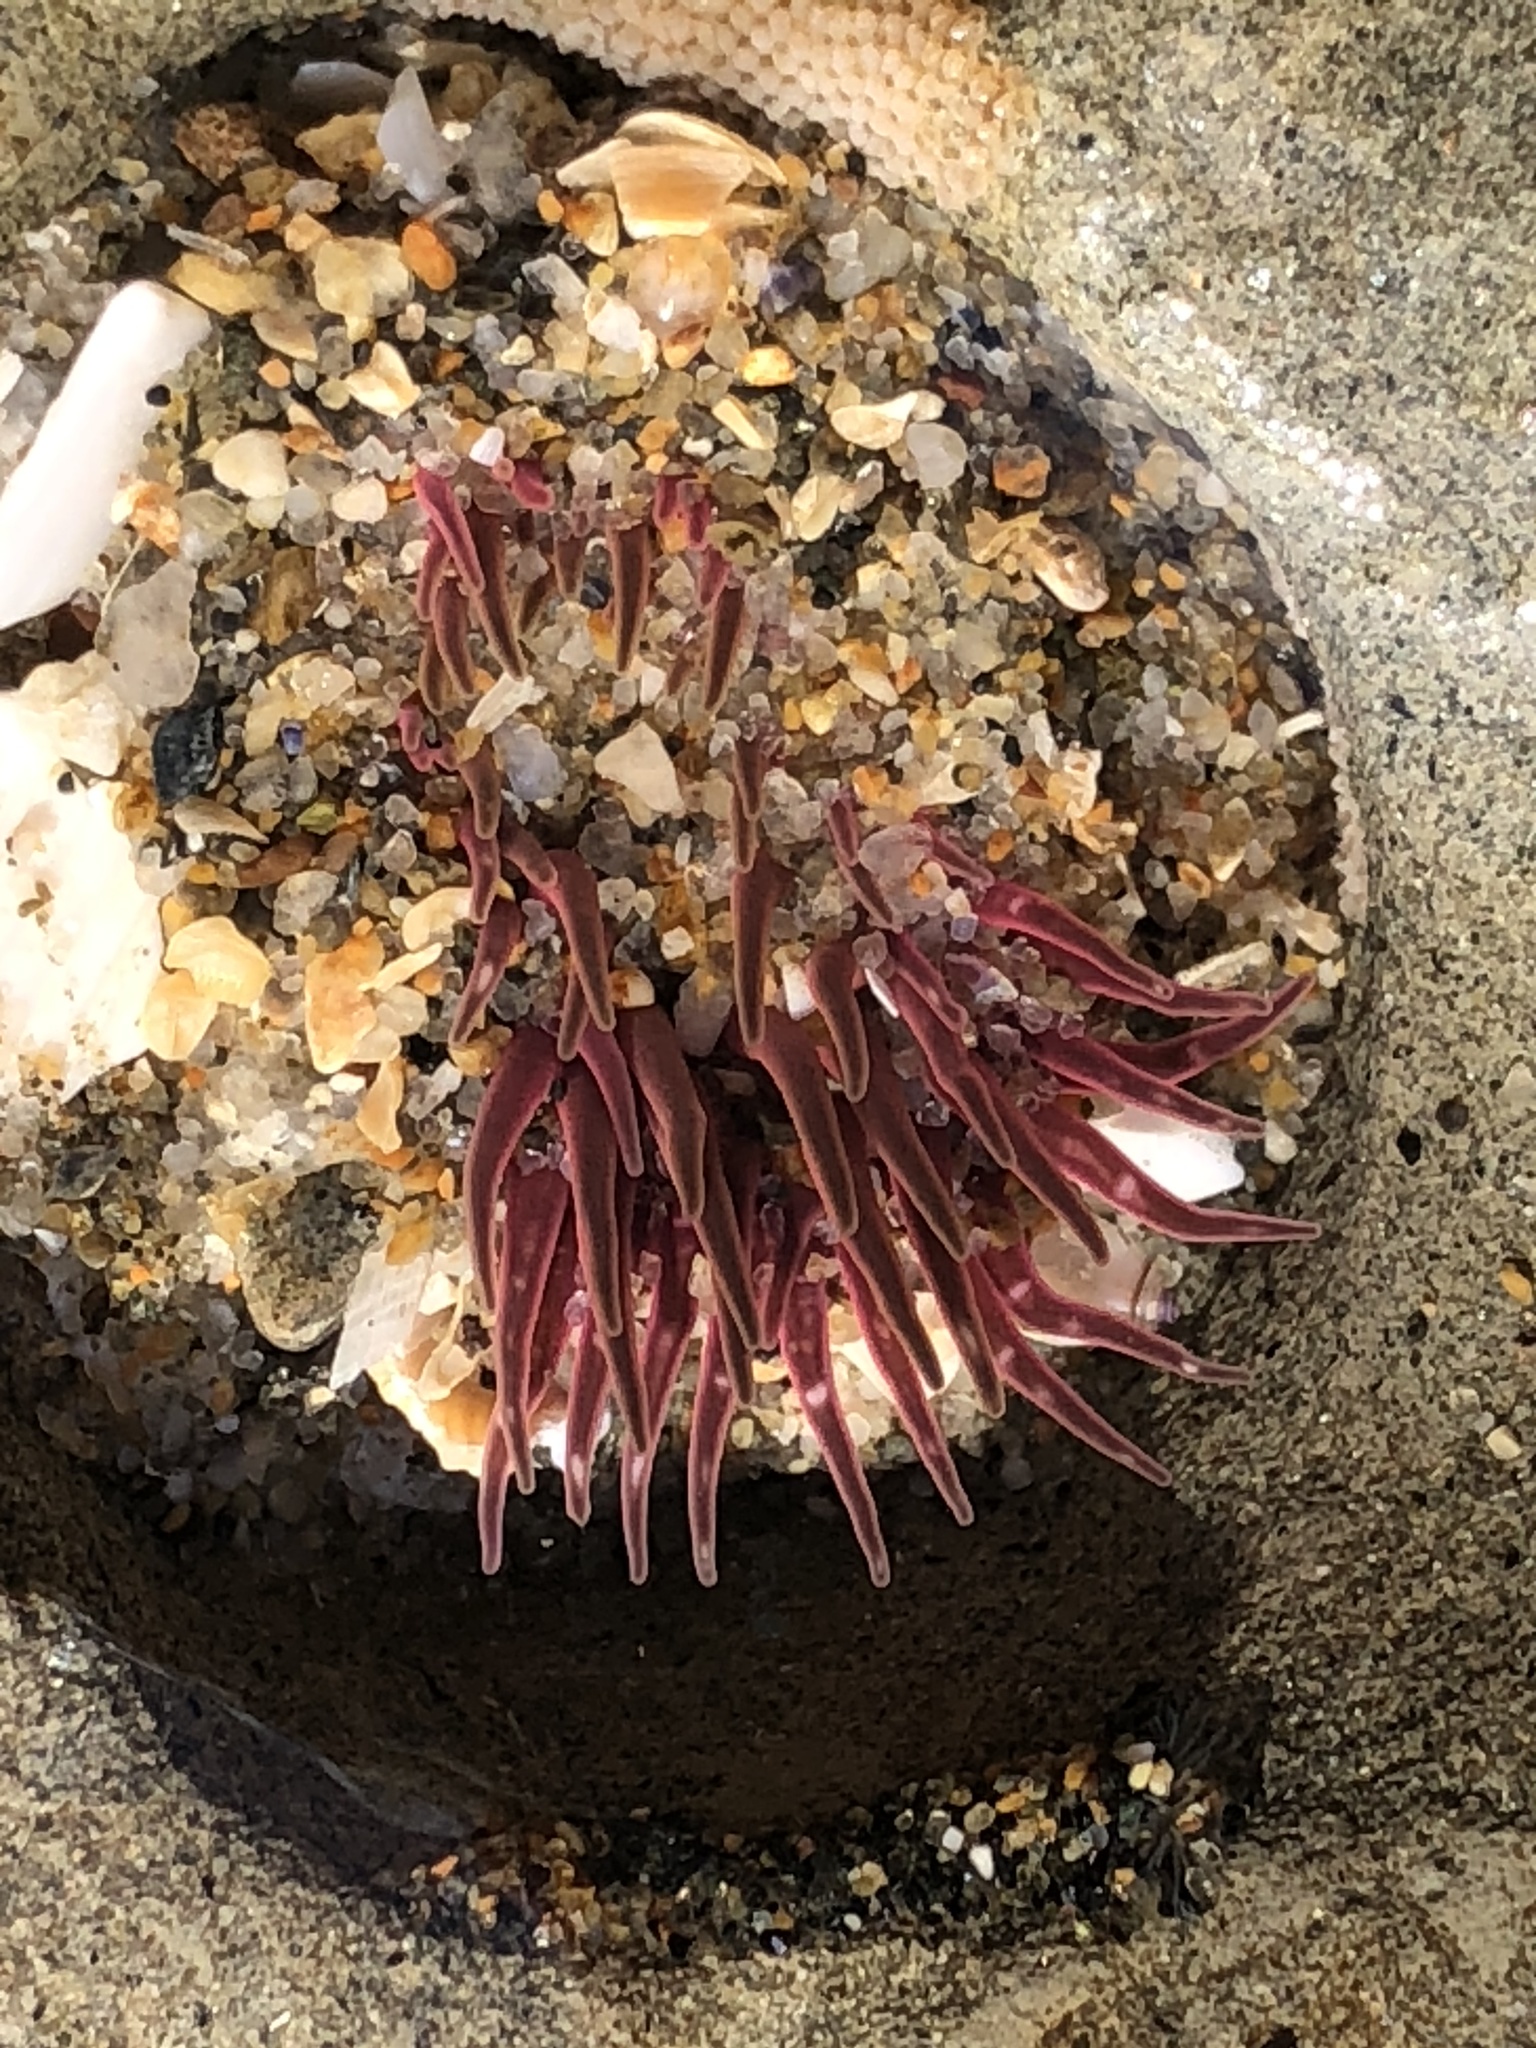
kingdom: Animalia
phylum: Cnidaria
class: Anthozoa
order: Actiniaria
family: Actiniidae
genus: Anthopleura
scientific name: Anthopleura artemisia
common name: Buried sea anemone
